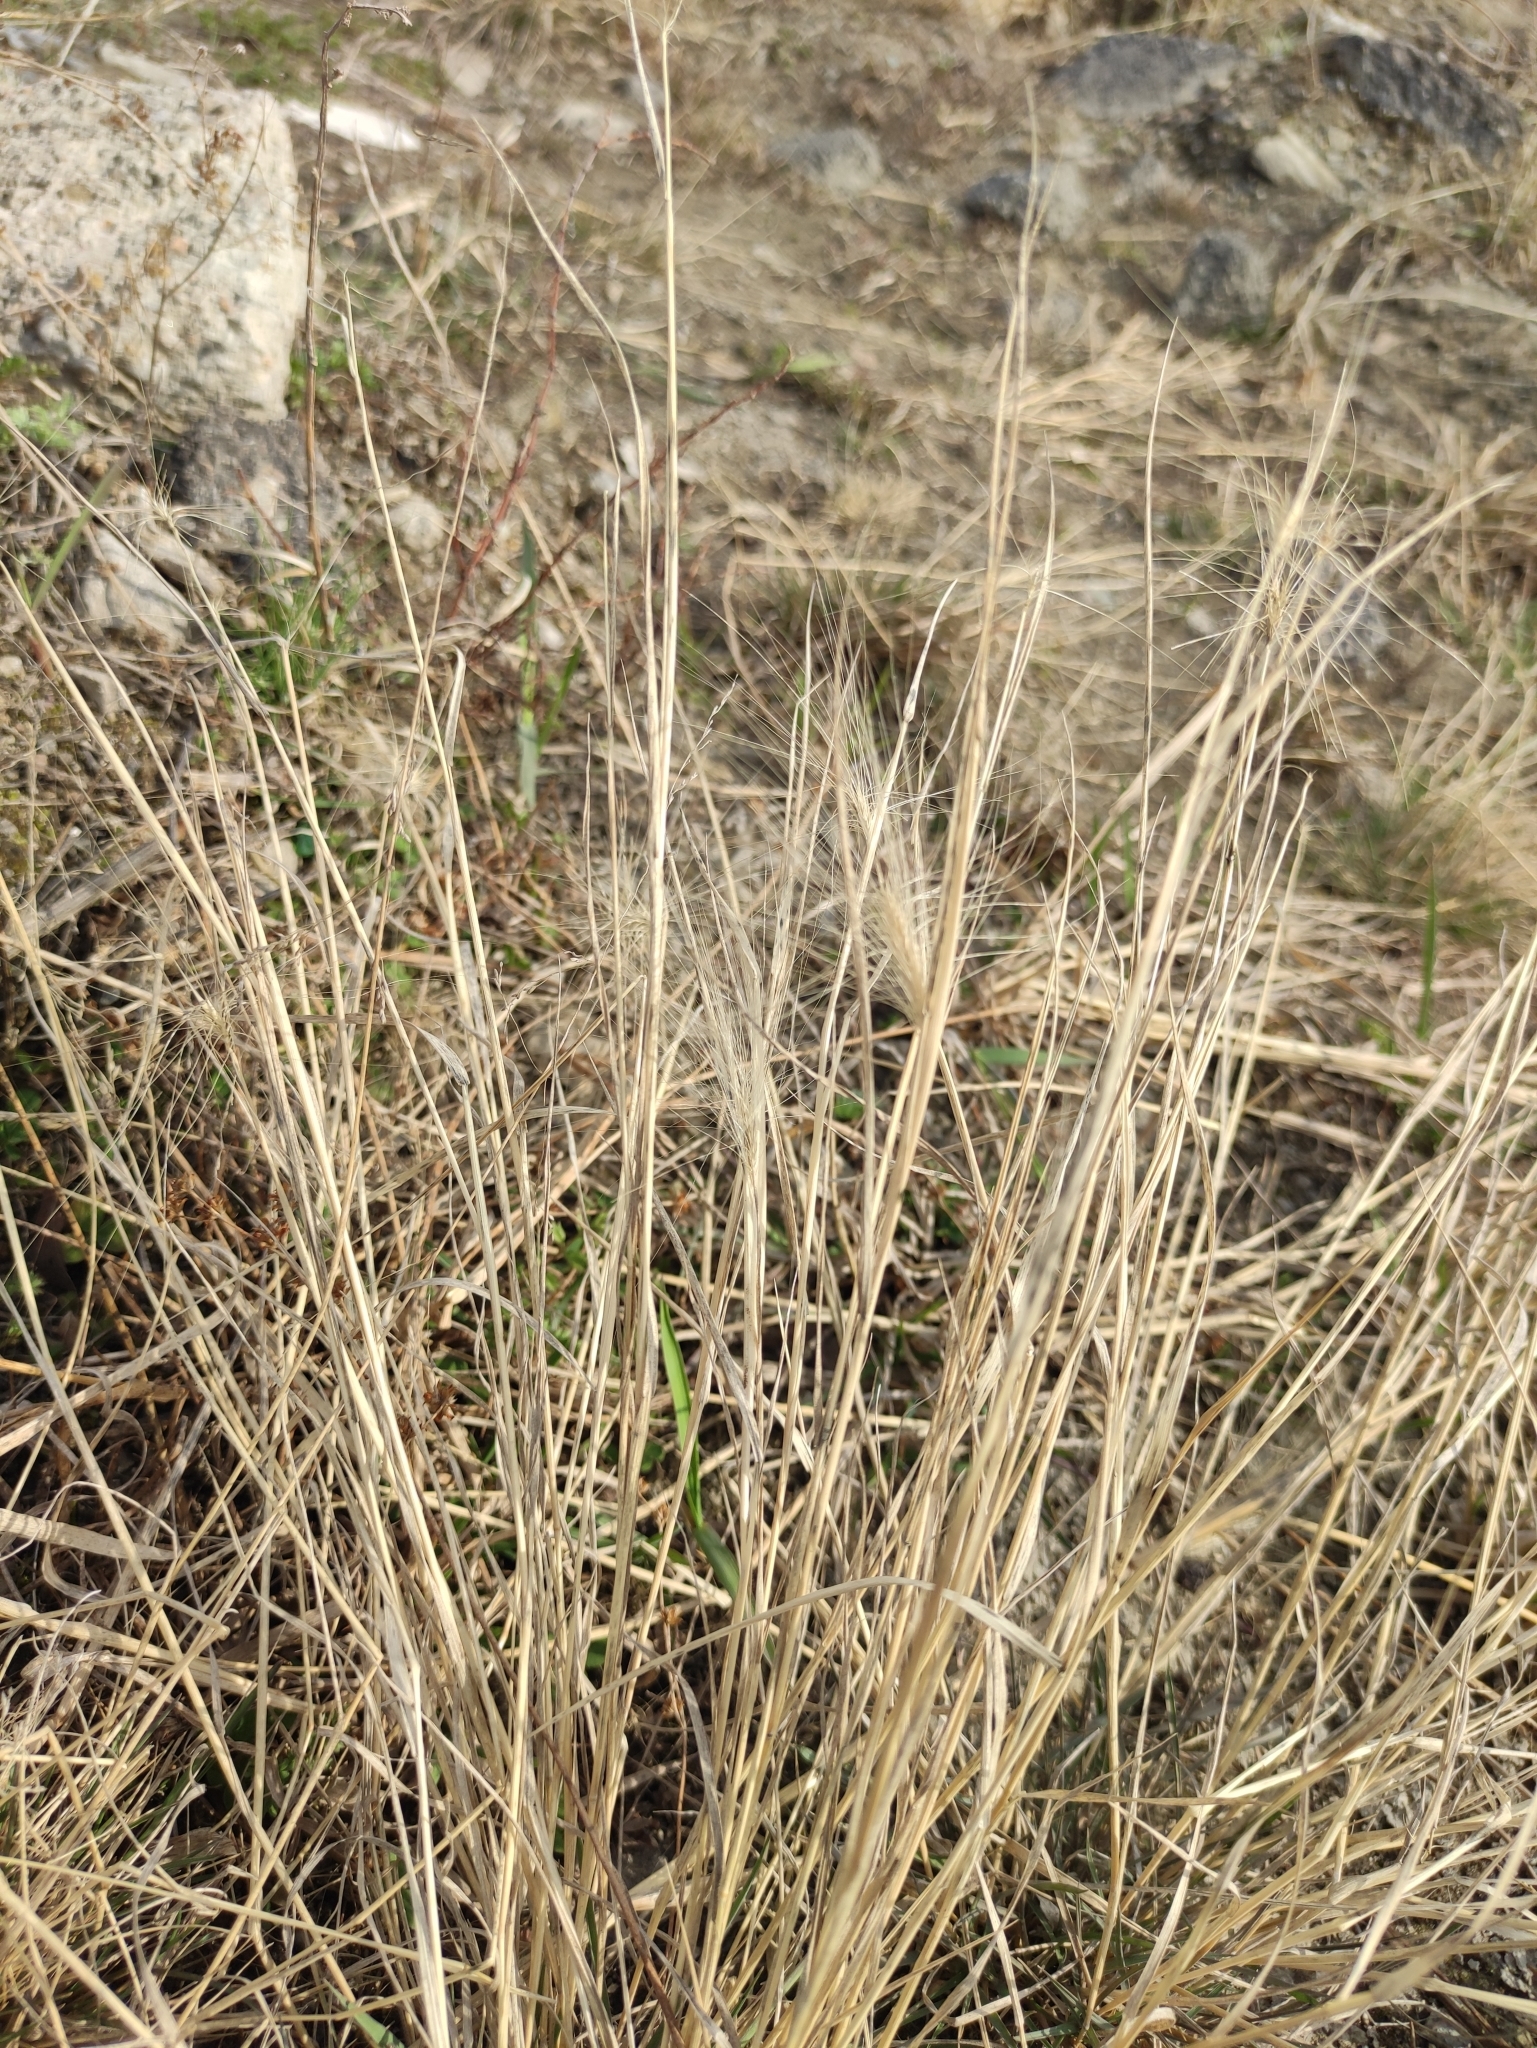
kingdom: Plantae
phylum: Tracheophyta
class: Liliopsida
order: Poales
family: Poaceae
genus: Hordeum
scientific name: Hordeum jubatum
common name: Foxtail barley
